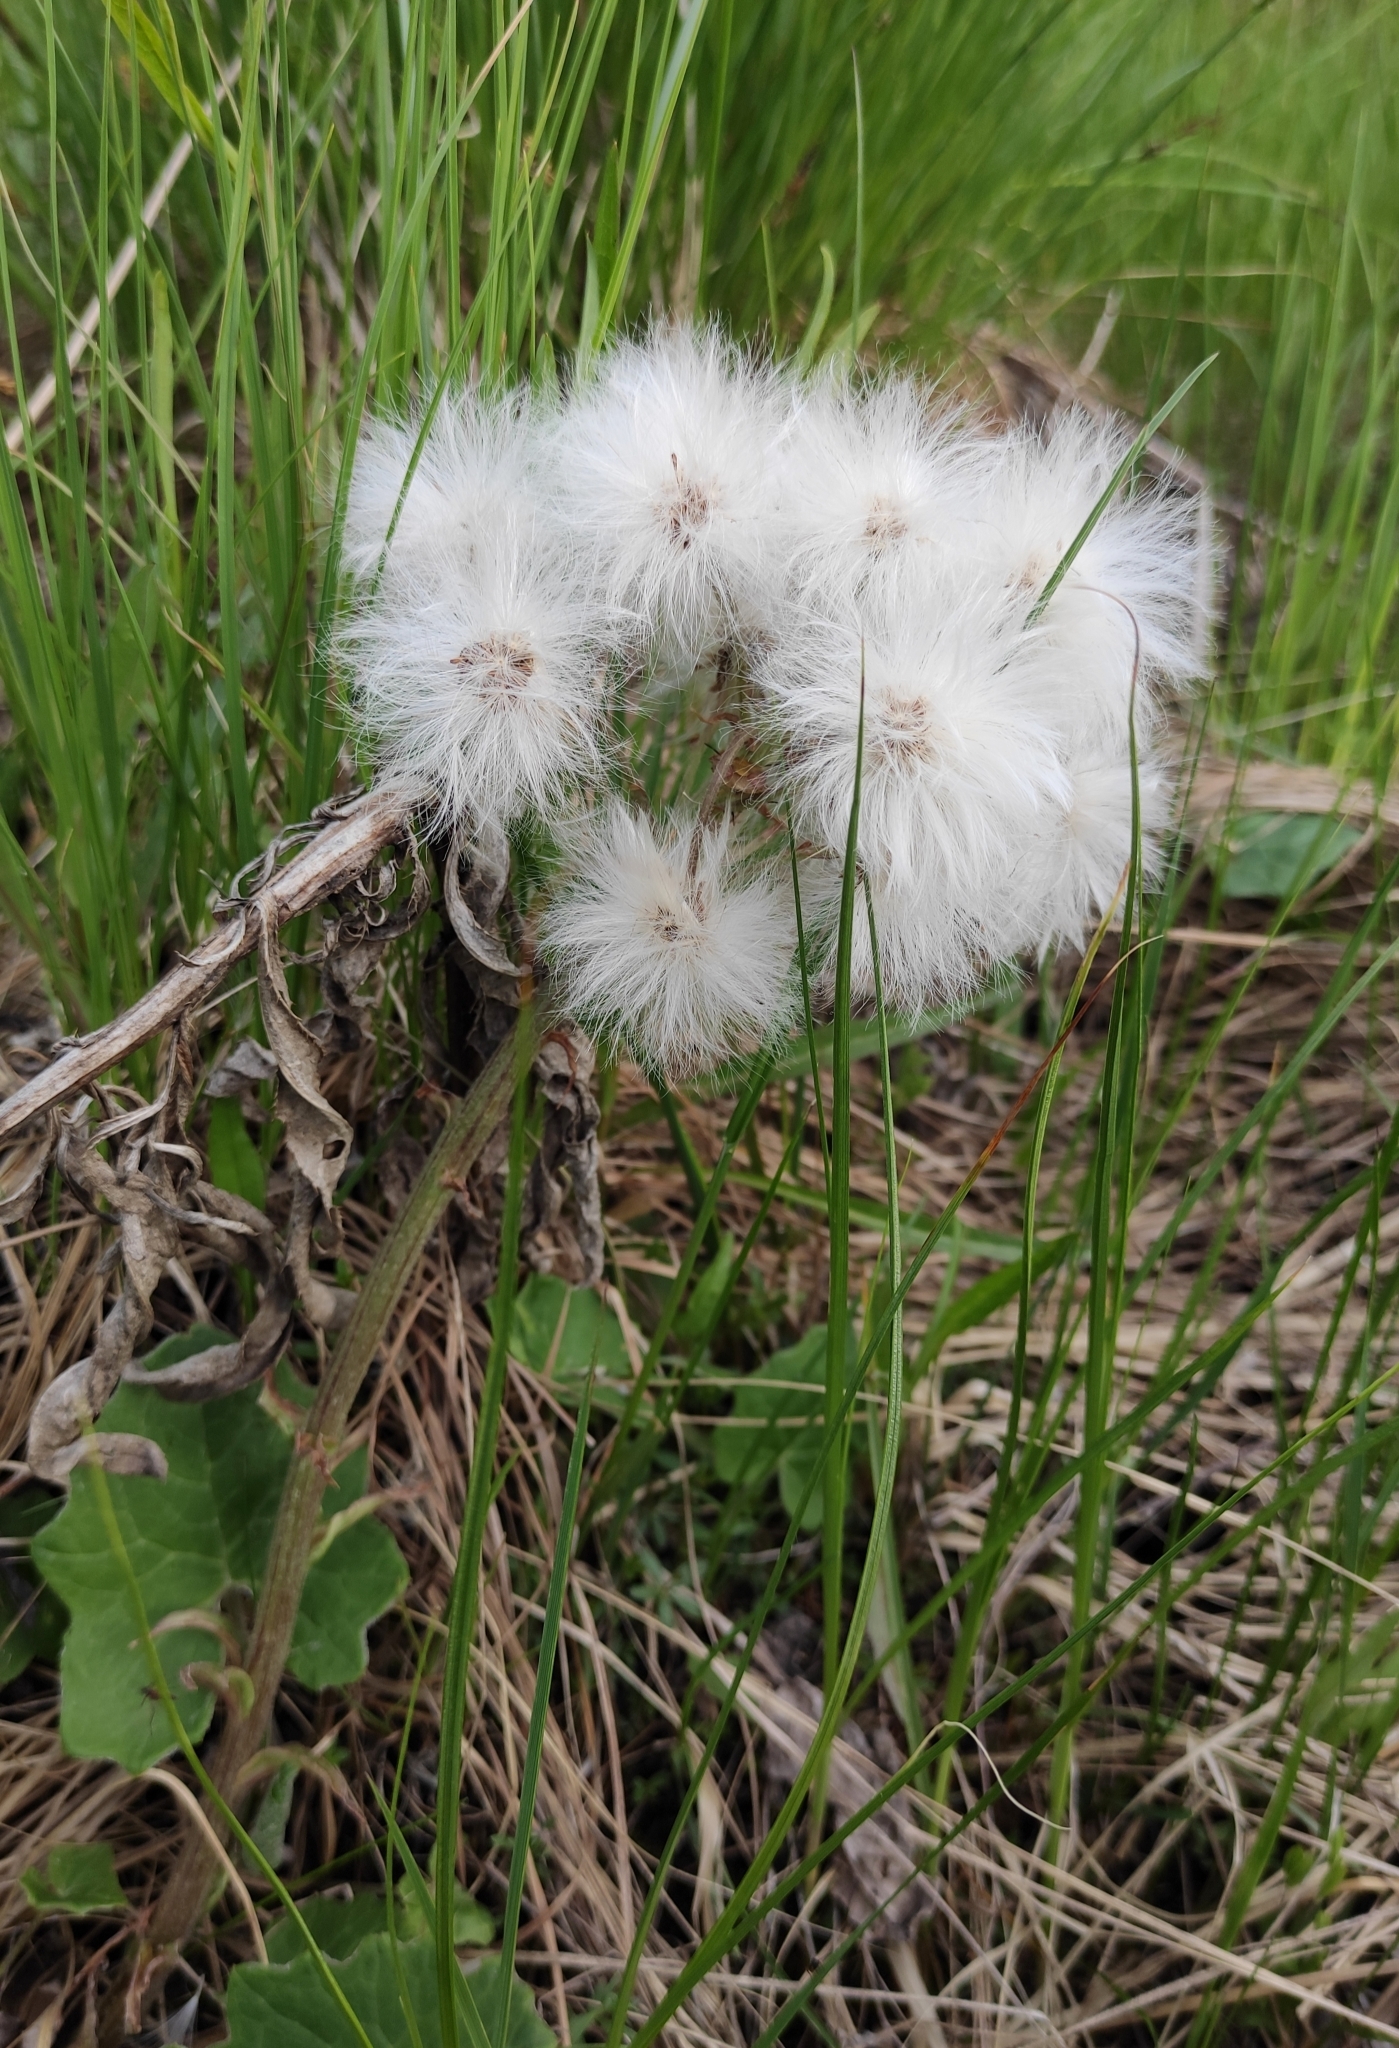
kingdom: Plantae
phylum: Tracheophyta
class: Magnoliopsida
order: Asterales
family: Asteraceae
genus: Petasites
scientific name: Petasites frigidus
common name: Arctic butterbur
